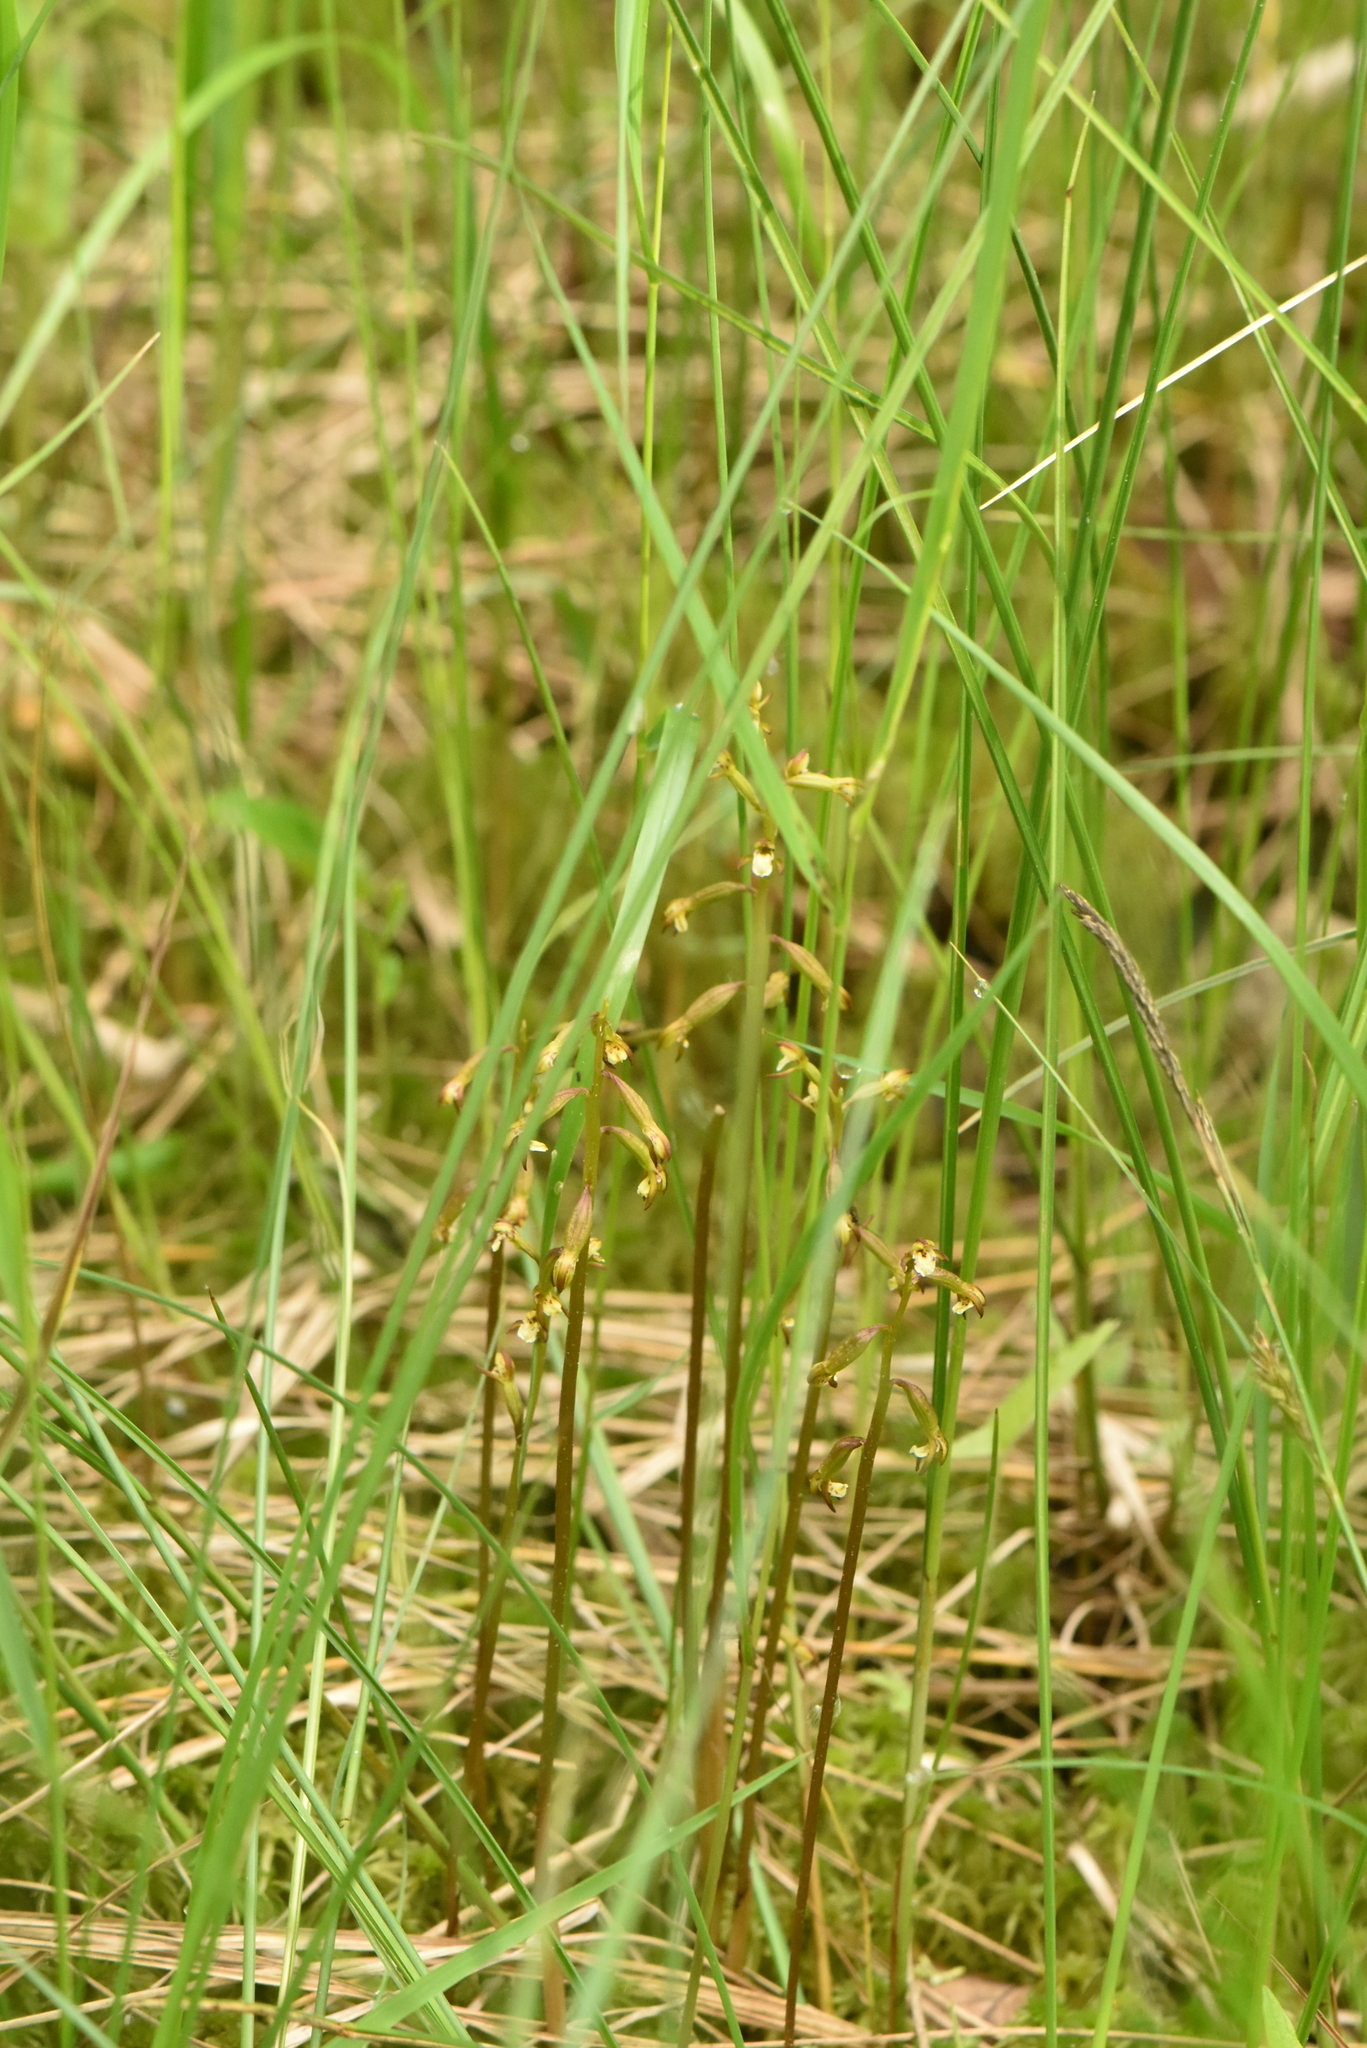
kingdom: Plantae
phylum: Tracheophyta
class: Liliopsida
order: Asparagales
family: Orchidaceae
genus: Corallorhiza
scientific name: Corallorhiza trifida
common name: Yellow coralroot
